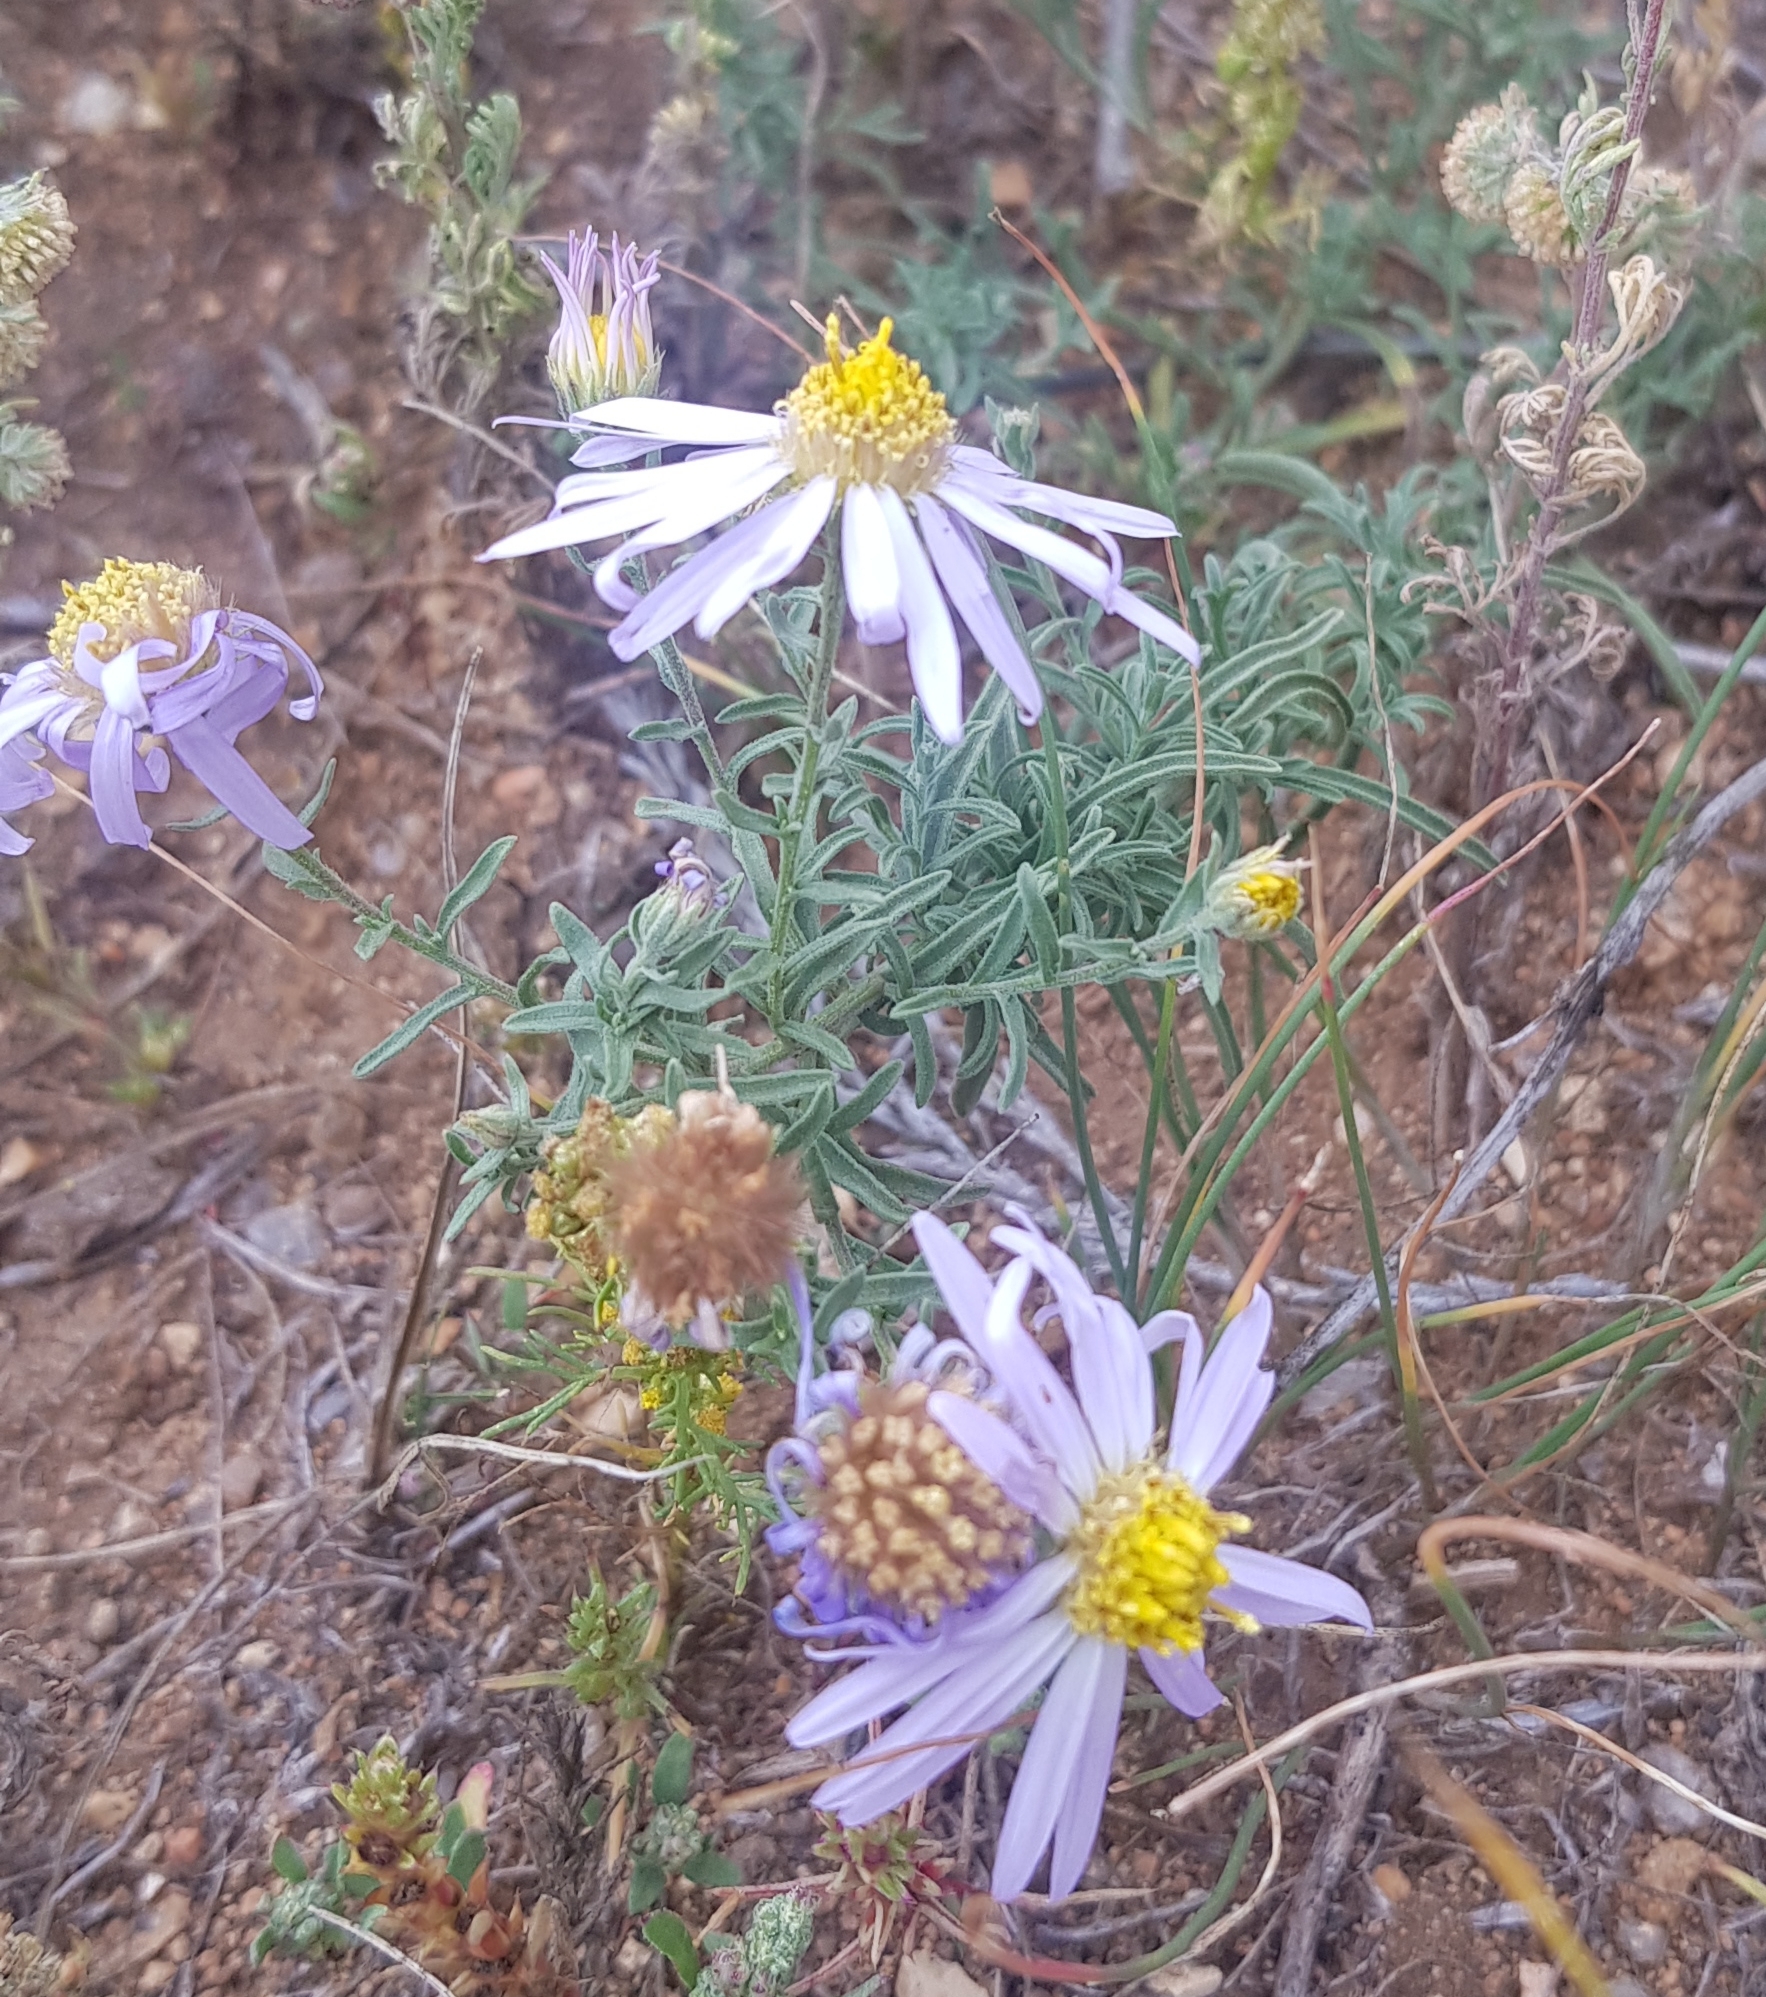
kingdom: Plantae
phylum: Tracheophyta
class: Magnoliopsida
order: Asterales
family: Asteraceae
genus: Heteropappus
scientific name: Heteropappus altaicus
